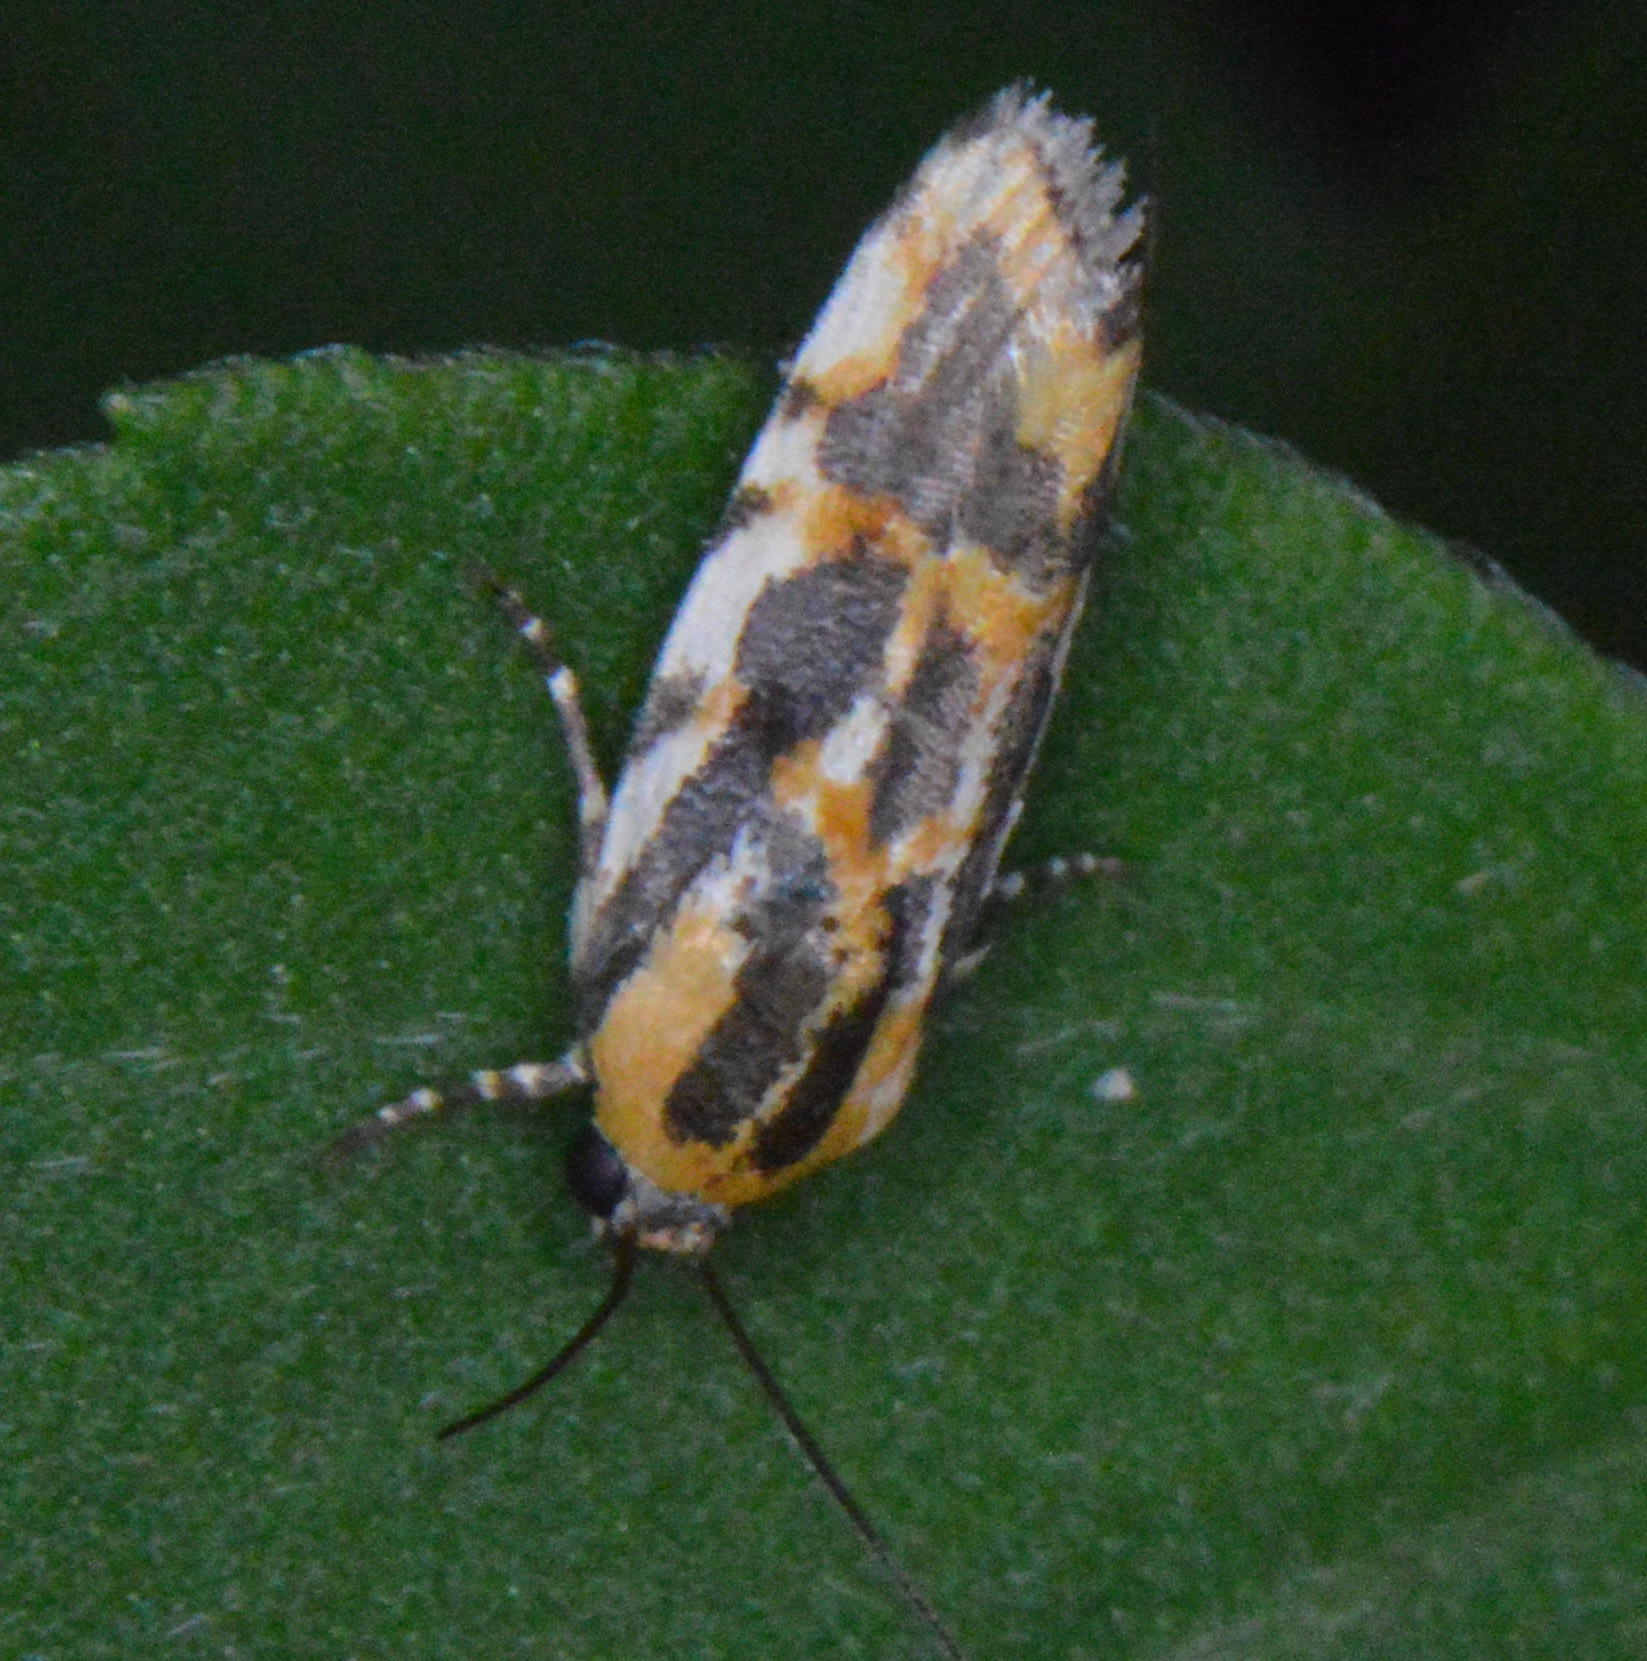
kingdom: Animalia
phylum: Arthropoda
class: Insecta
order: Lepidoptera
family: Noctuidae
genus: Acontia
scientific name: Acontia leo
